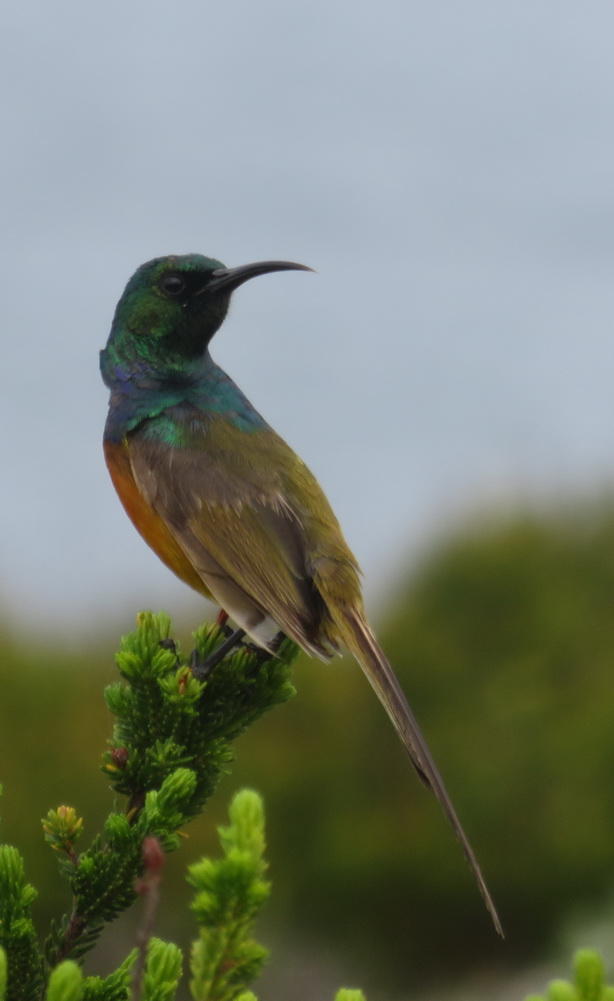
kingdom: Animalia
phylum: Chordata
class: Aves
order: Passeriformes
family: Nectariniidae
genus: Anthobaphes
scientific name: Anthobaphes violacea
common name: Orange-breasted sunbird
